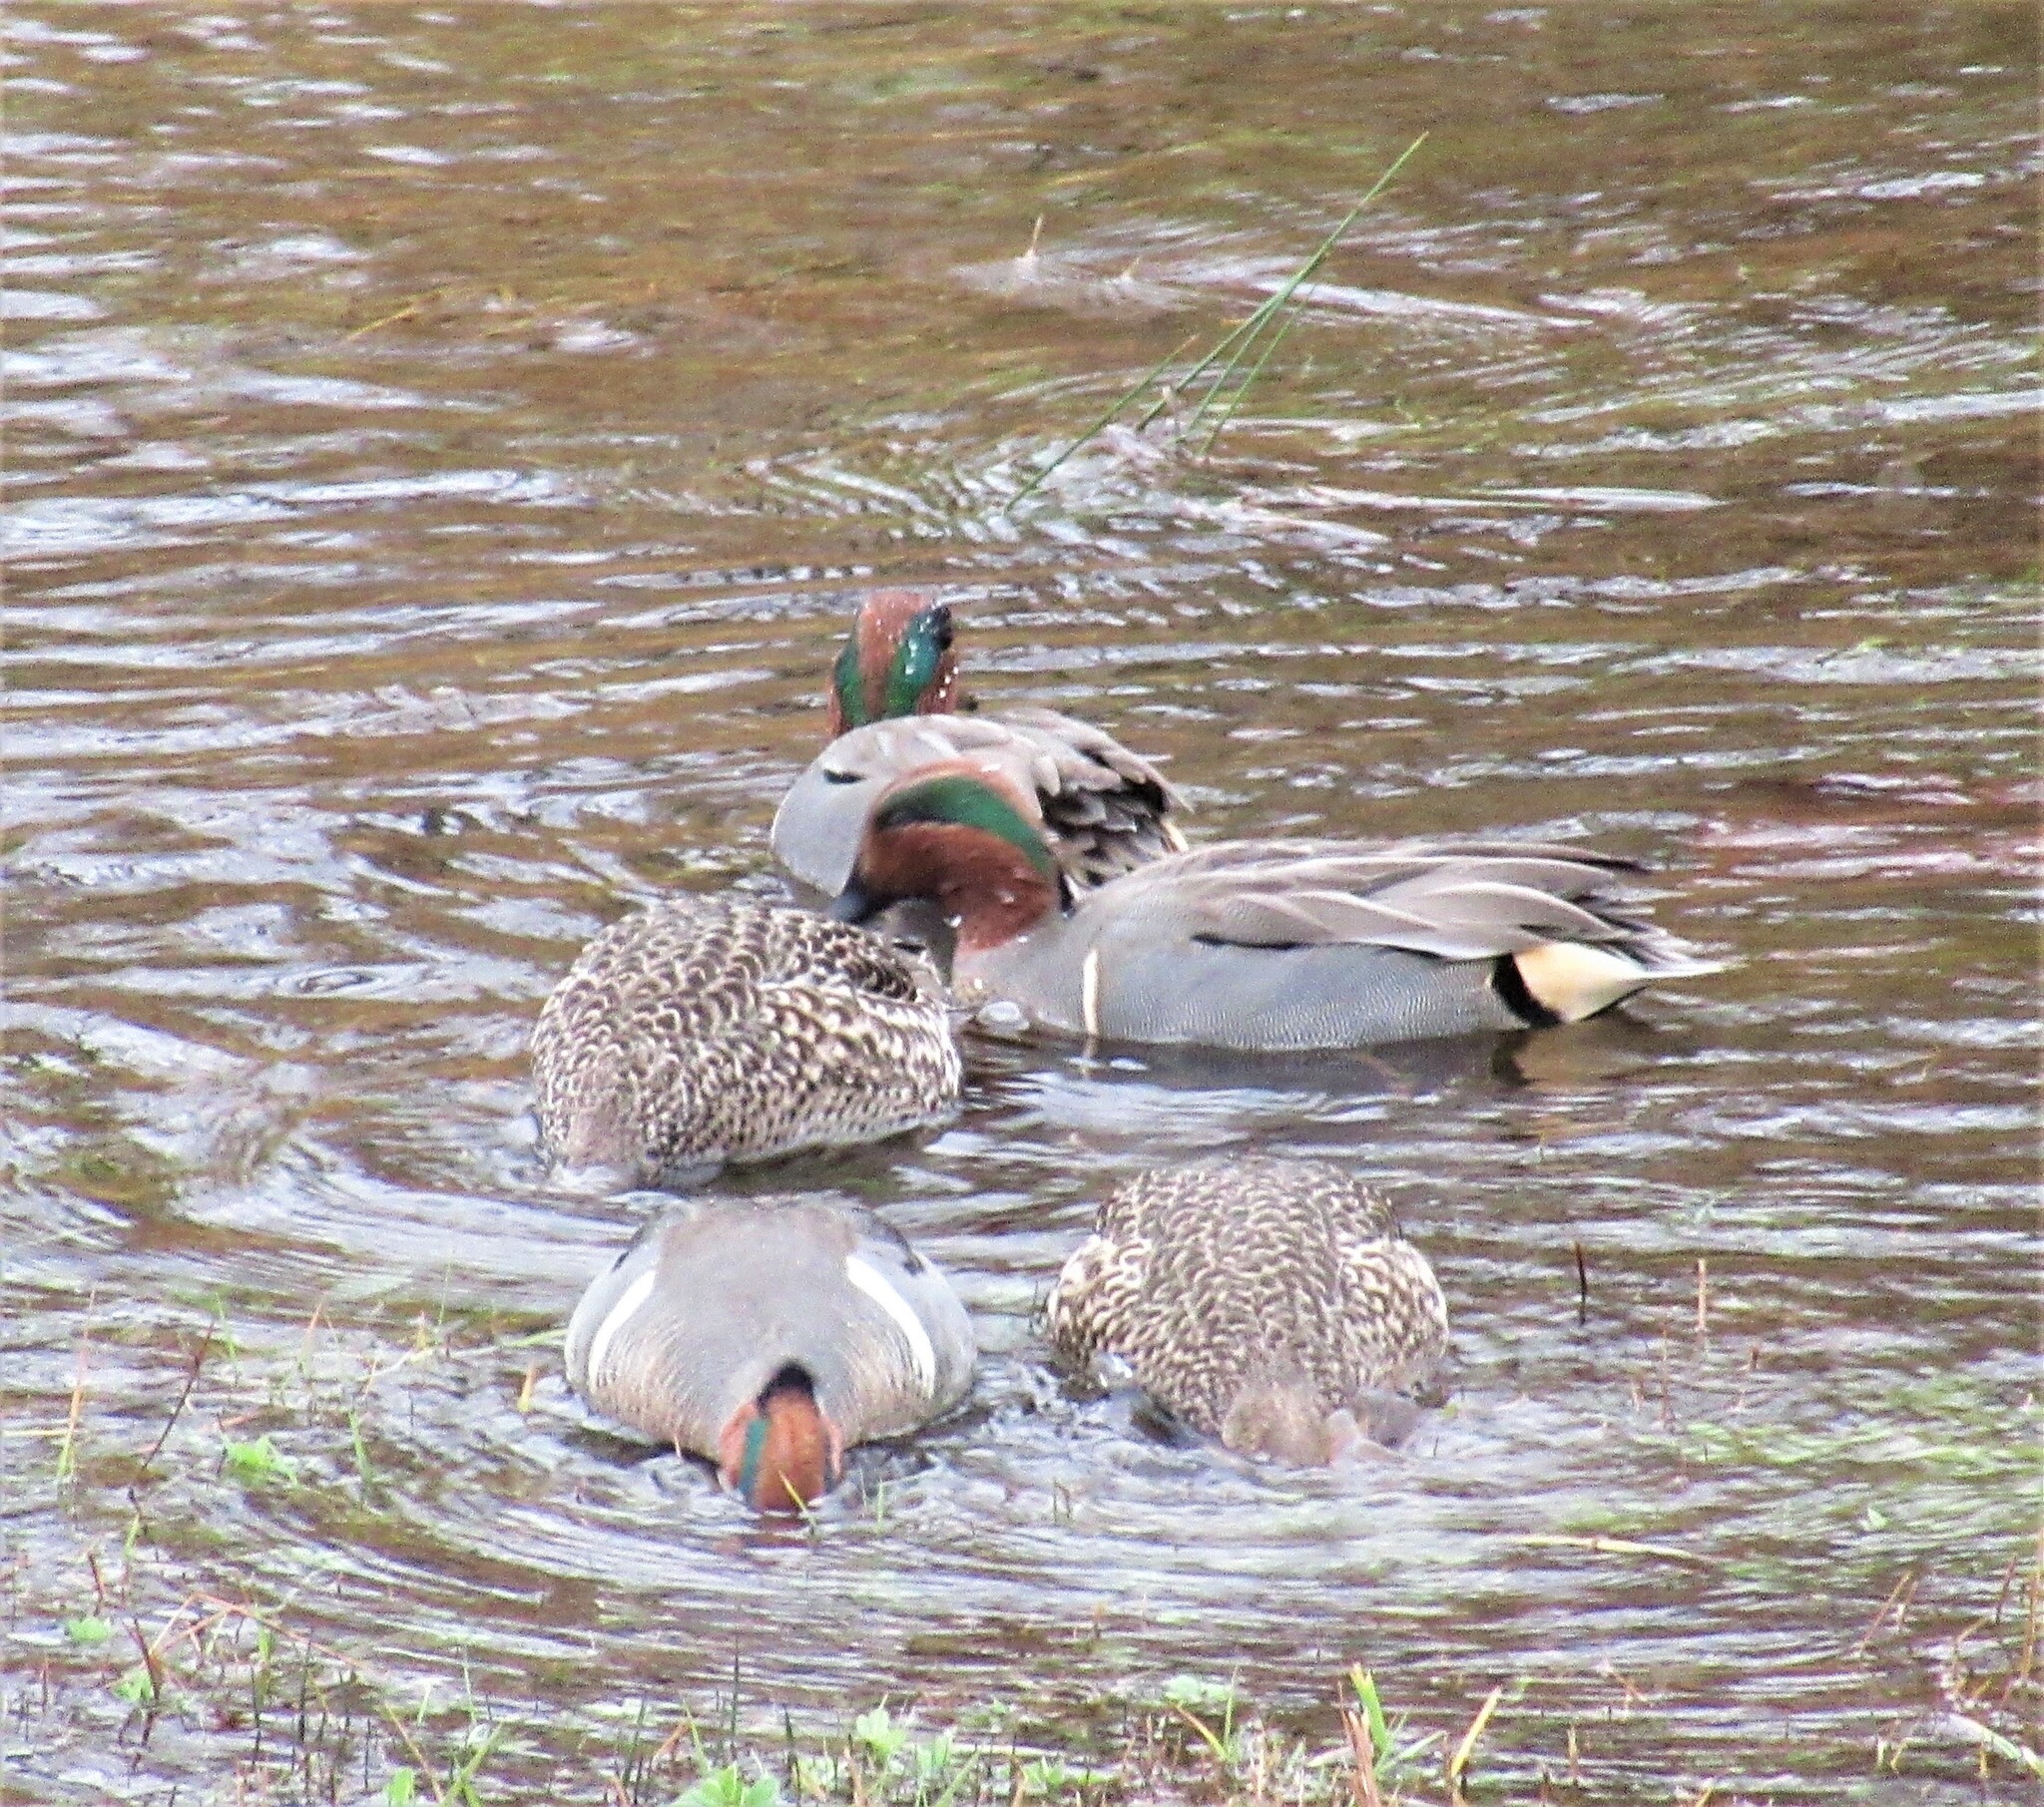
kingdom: Animalia
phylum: Chordata
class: Aves
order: Anseriformes
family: Anatidae
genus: Anas
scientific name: Anas carolinensis
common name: Green-winged teal
